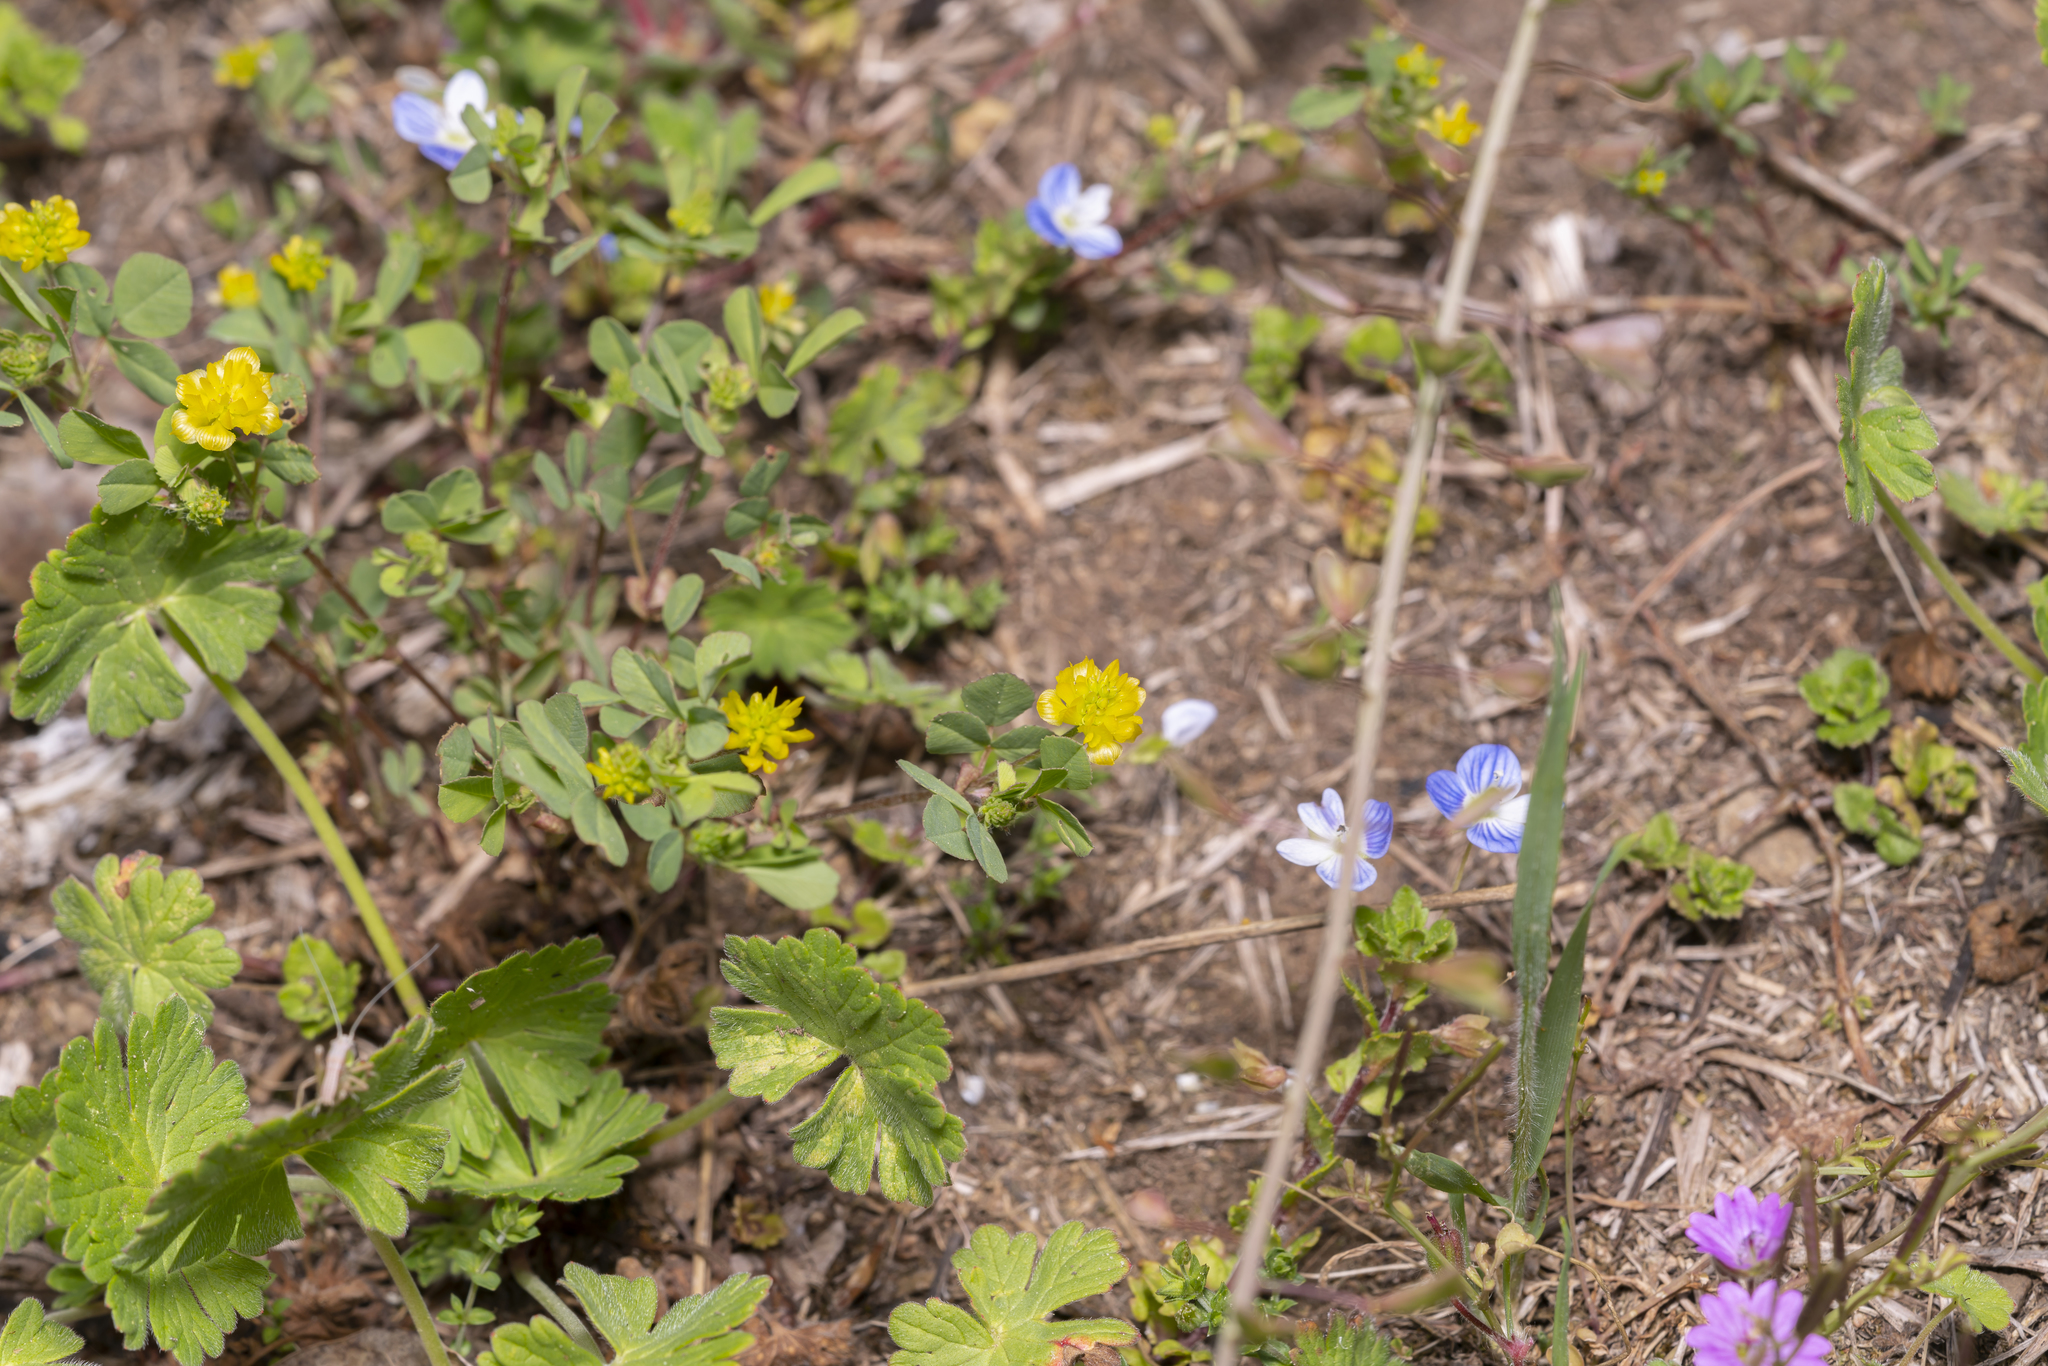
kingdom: Plantae
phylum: Tracheophyta
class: Magnoliopsida
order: Fabales
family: Fabaceae
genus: Trifolium
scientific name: Trifolium campestre
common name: Field clover
